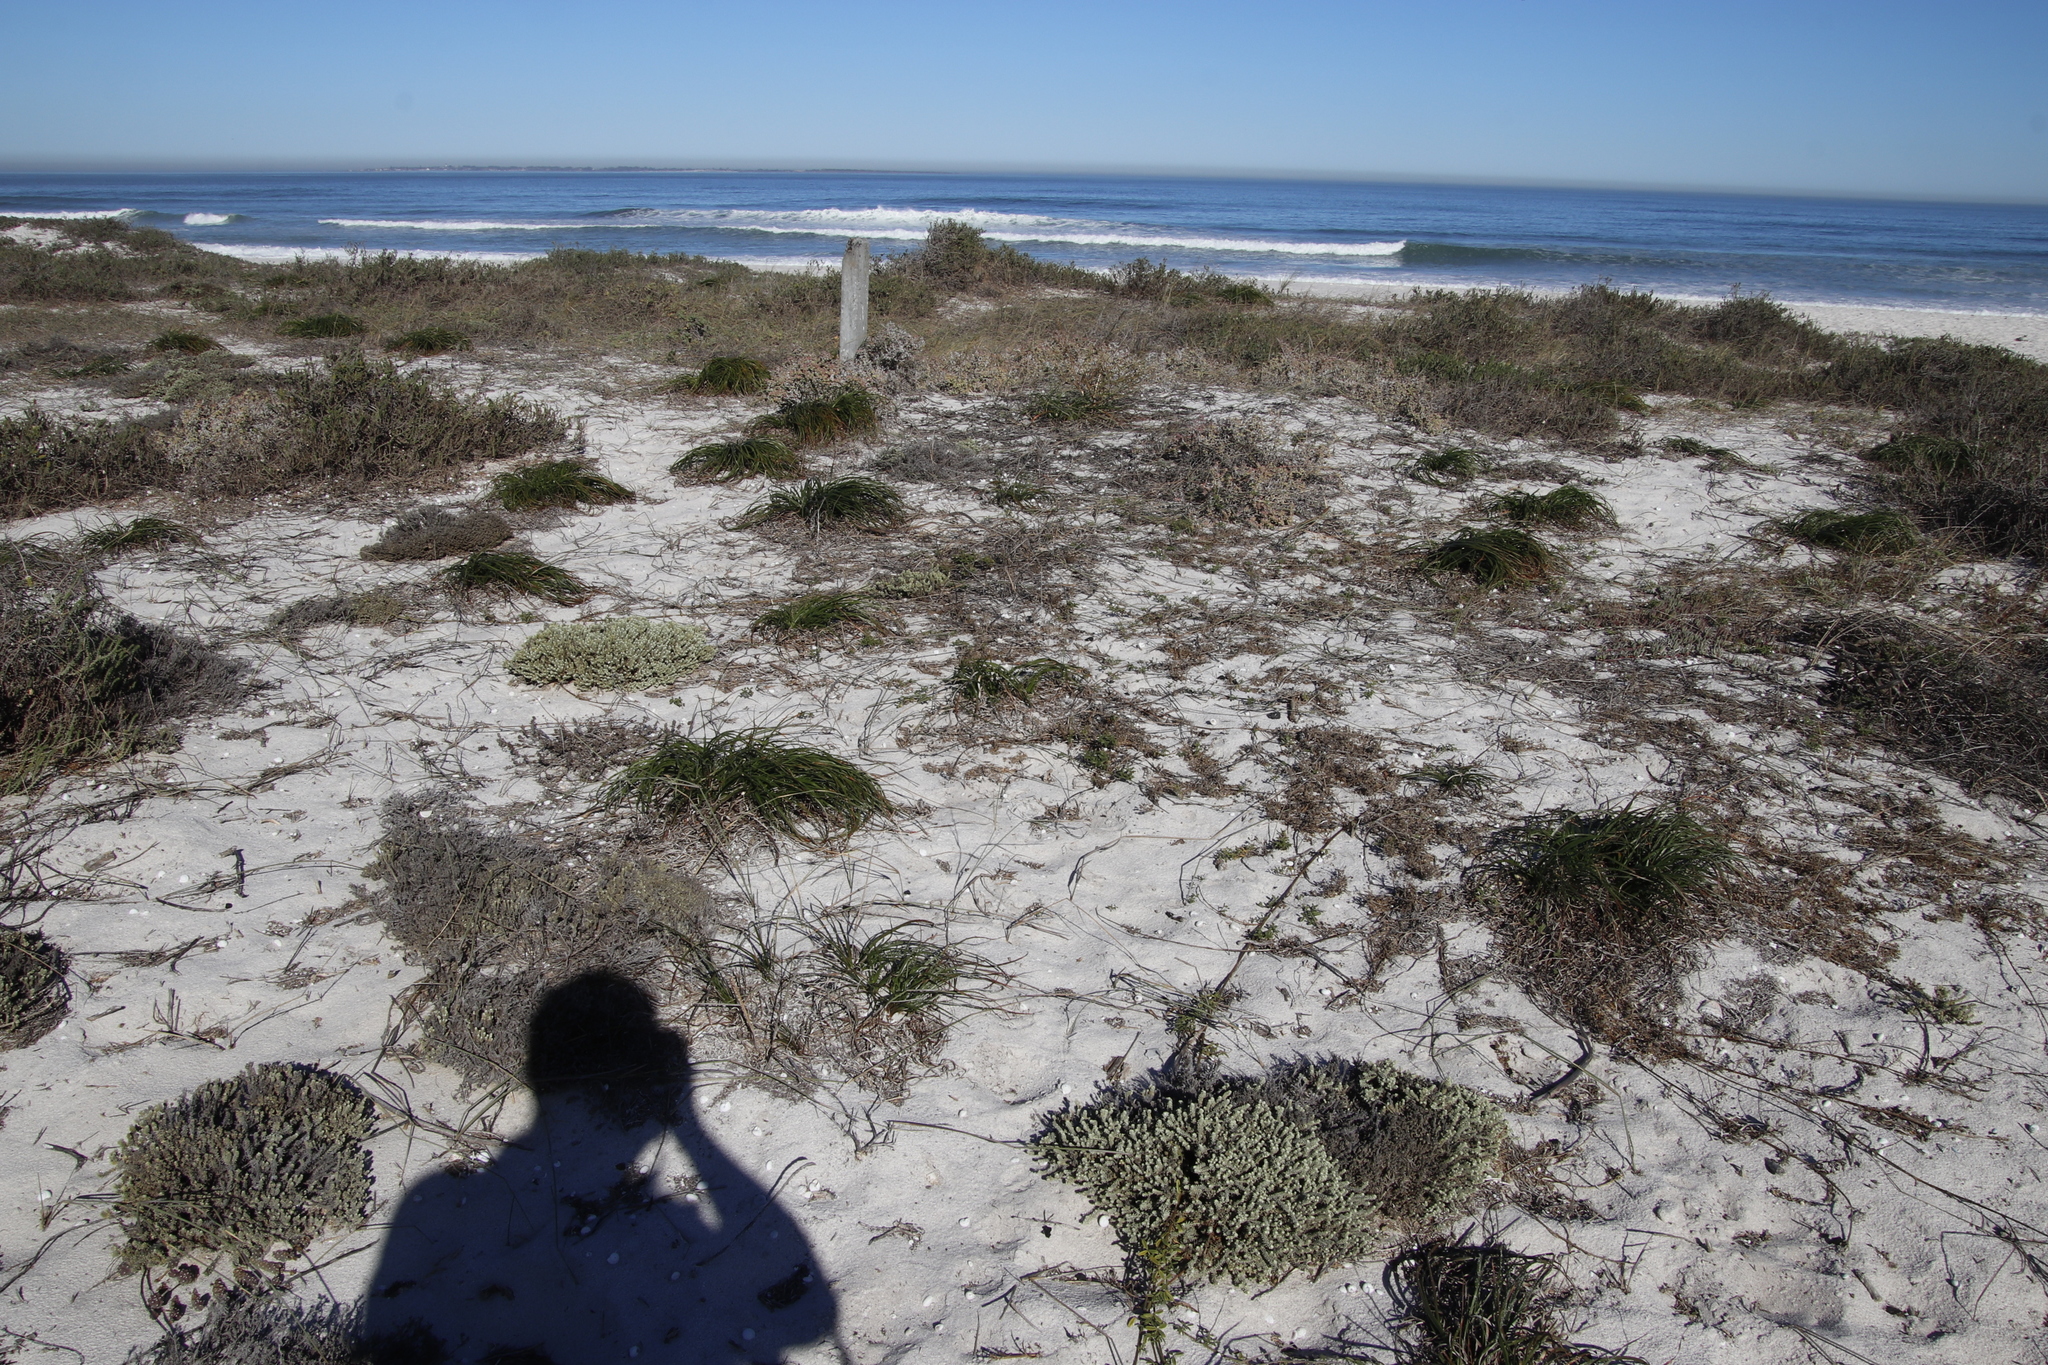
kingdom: Plantae
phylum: Tracheophyta
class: Liliopsida
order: Asparagales
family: Asphodelaceae
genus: Trachyandra
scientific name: Trachyandra divaricata
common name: Dune onionweed
